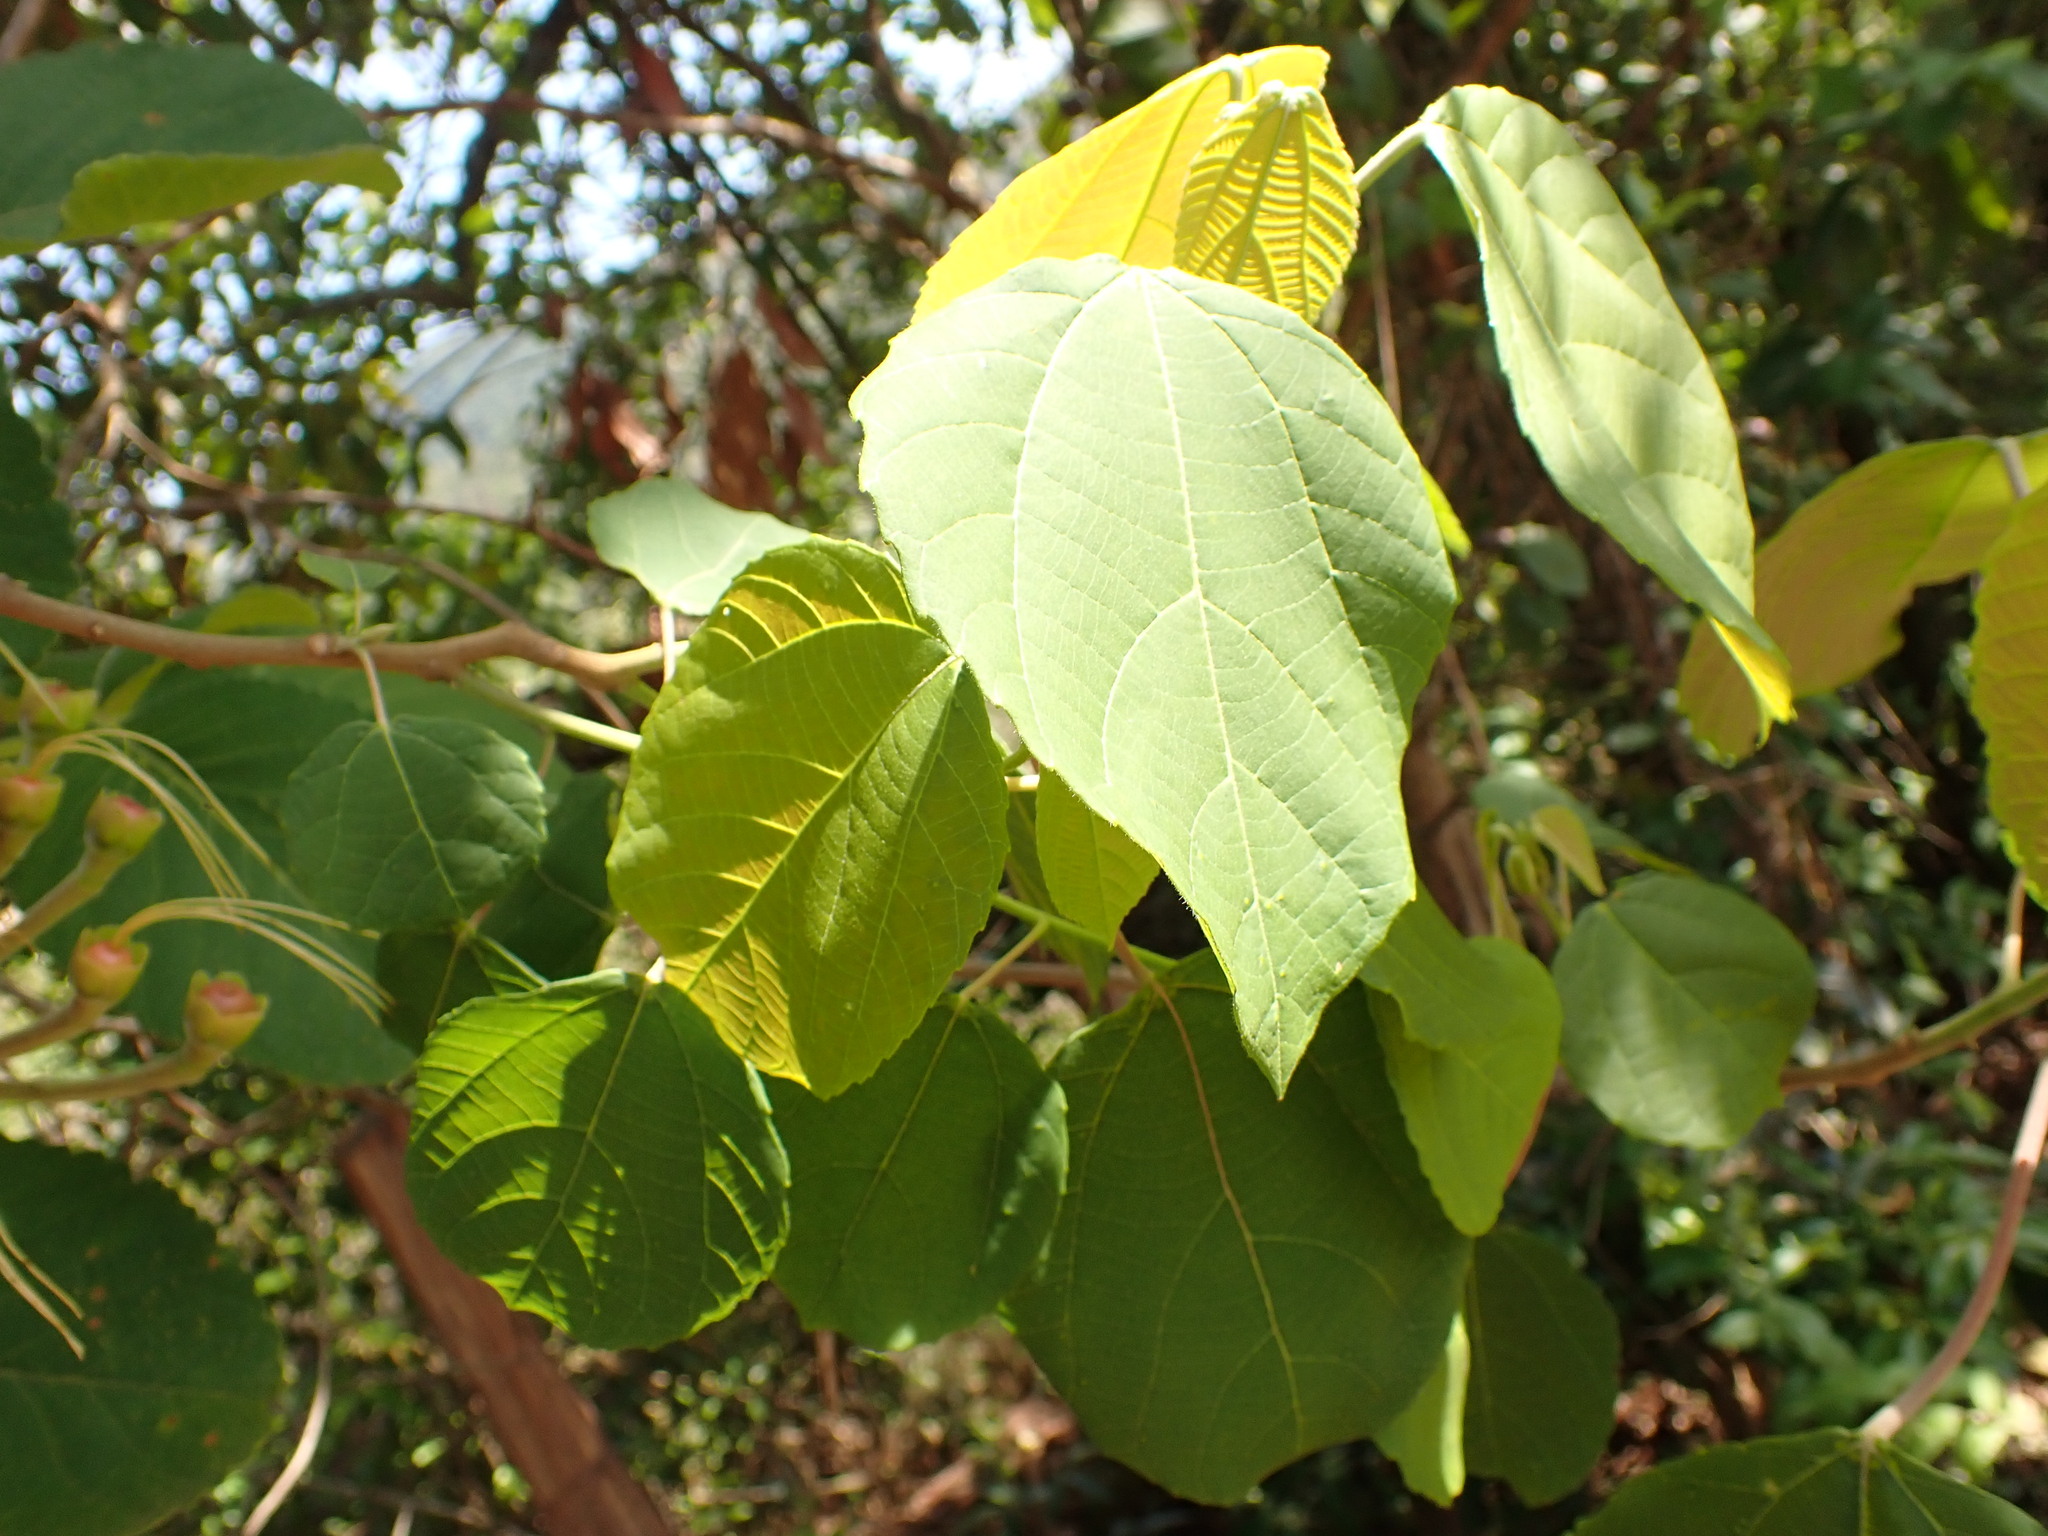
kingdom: Plantae
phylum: Tracheophyta
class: Magnoliopsida
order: Malpighiales
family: Caryocaraceae
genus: Caryocar
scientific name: Caryocar brasiliense
